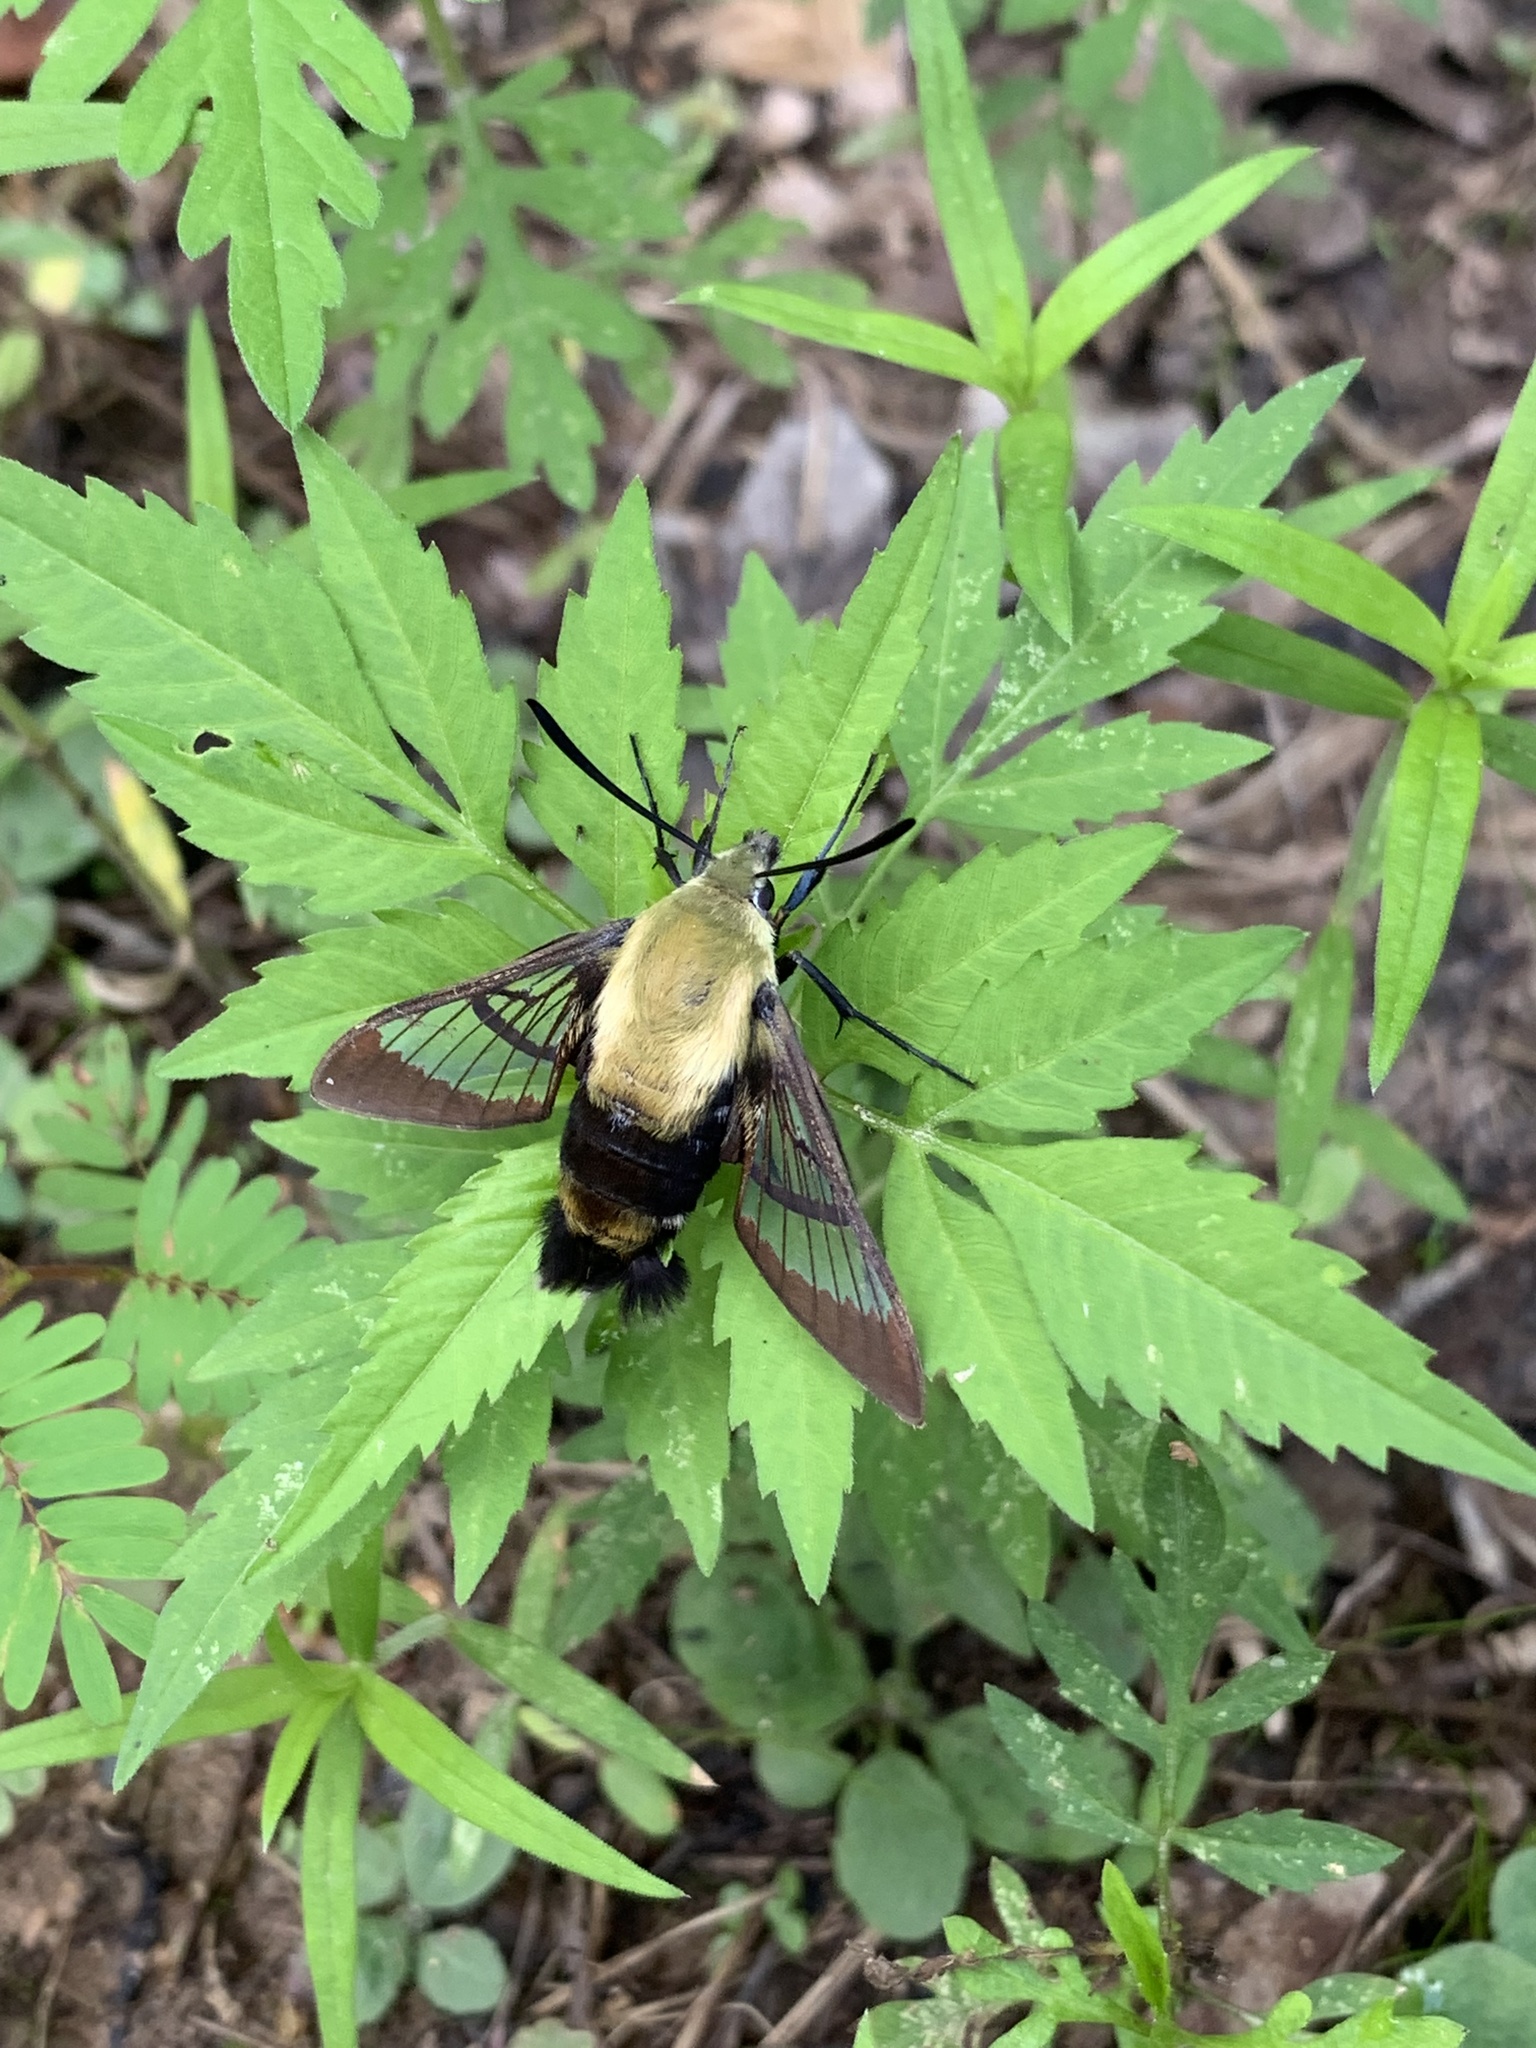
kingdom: Animalia
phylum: Arthropoda
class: Insecta
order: Lepidoptera
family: Sphingidae
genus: Hemaris
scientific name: Hemaris diffinis
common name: Bumblebee moth
